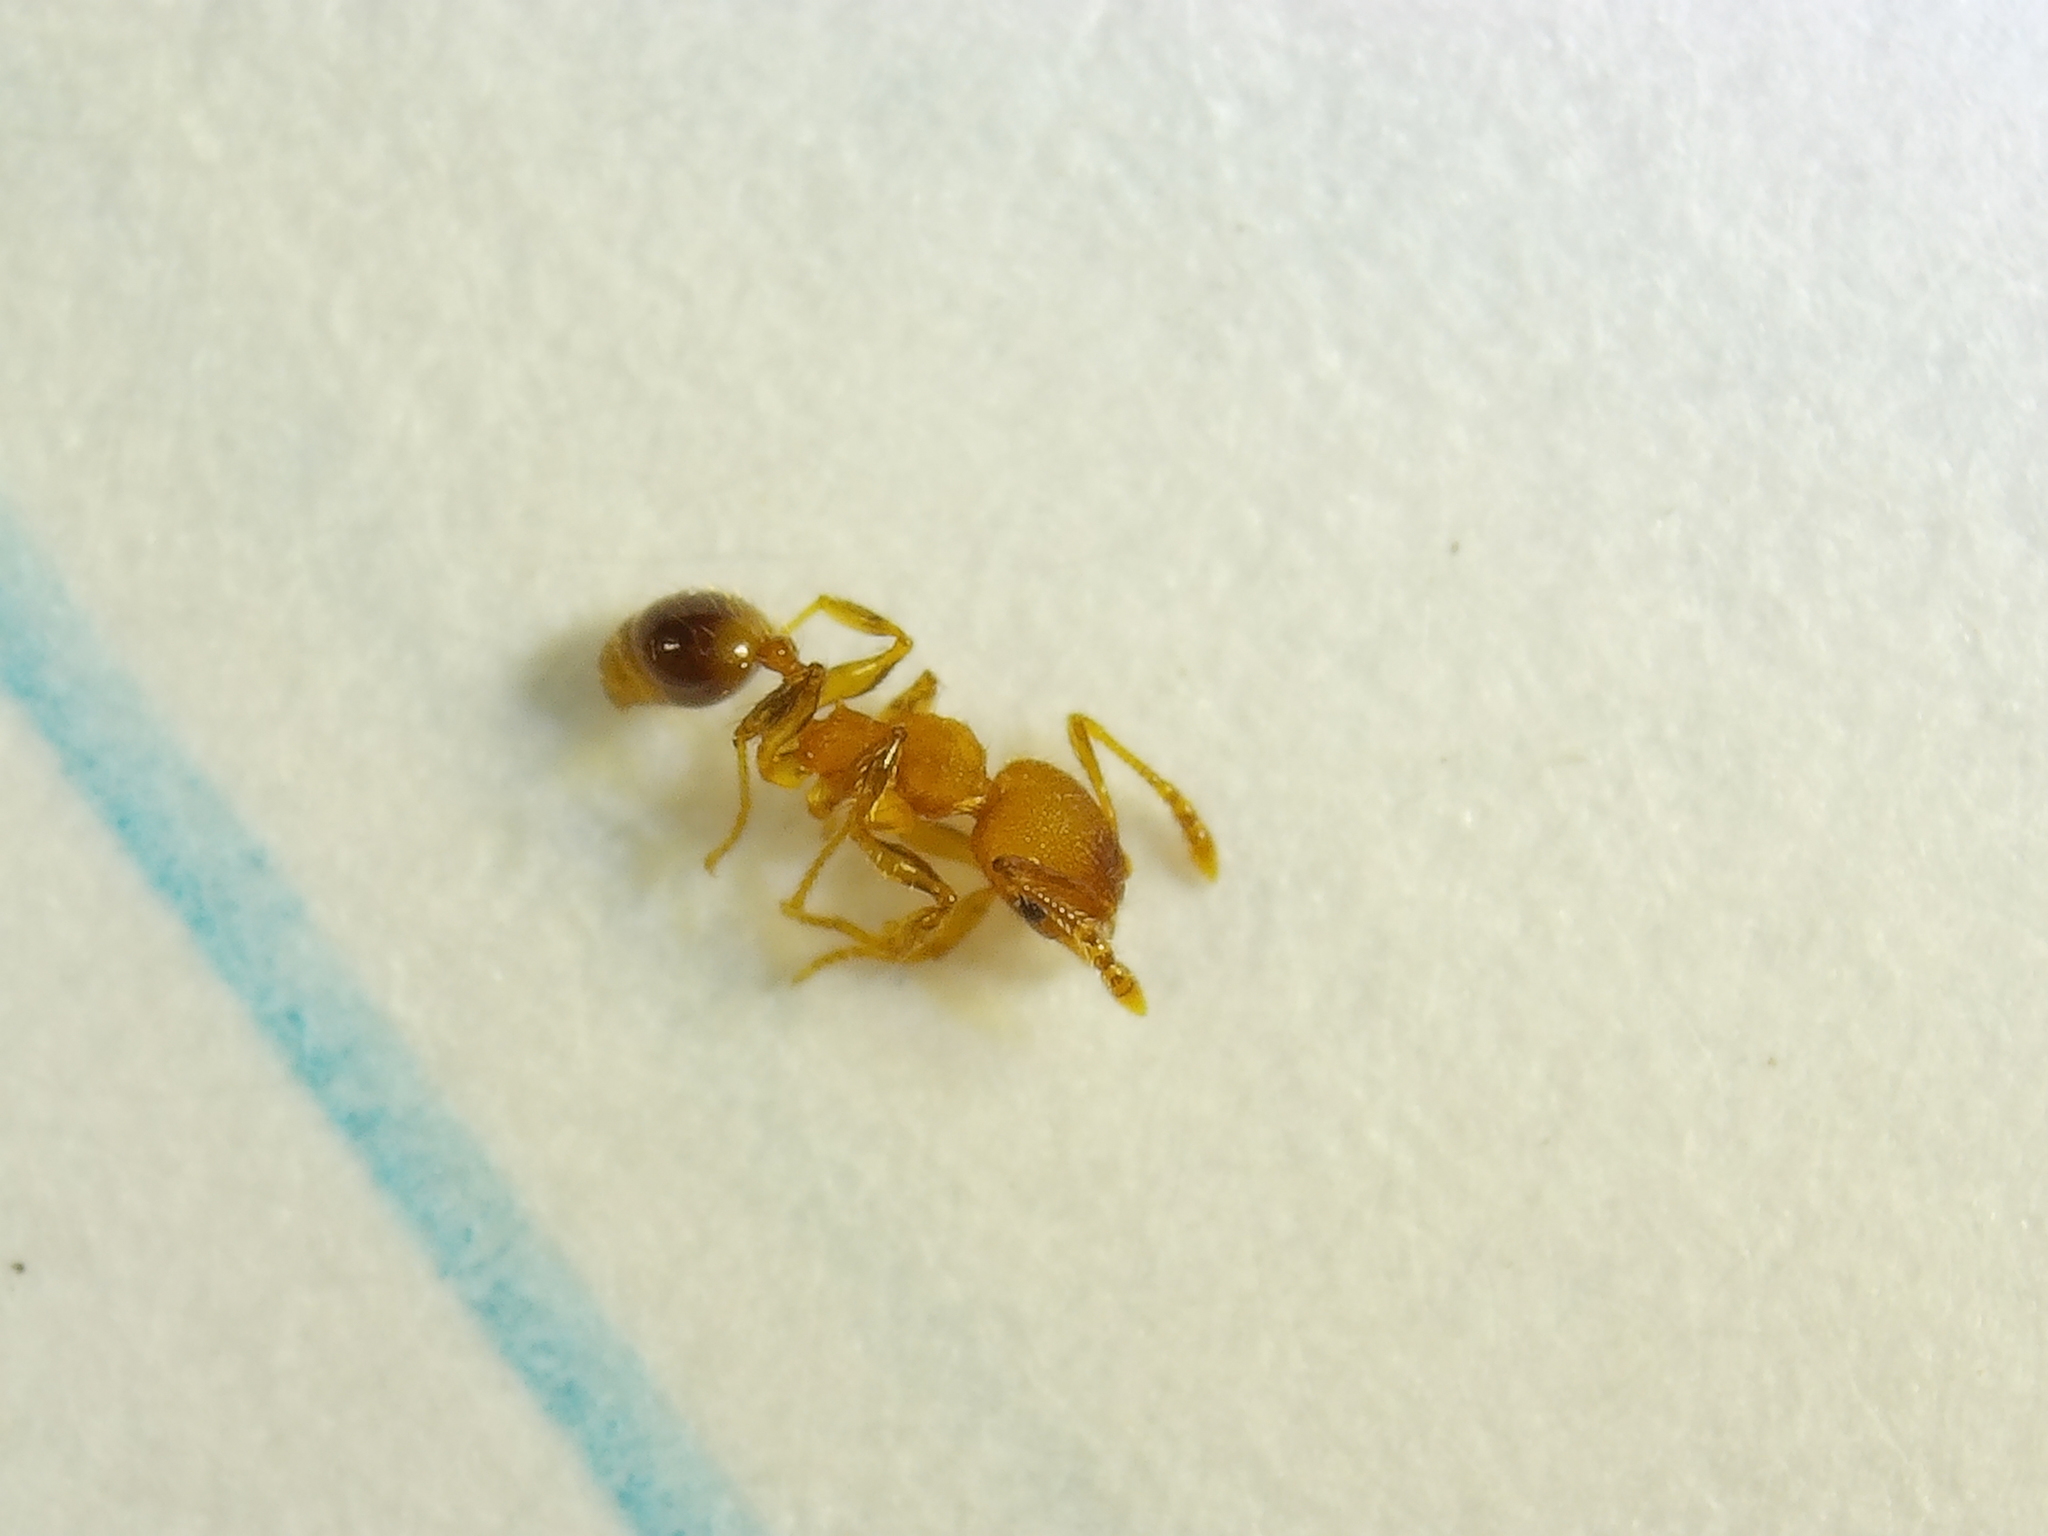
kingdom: Animalia
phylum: Arthropoda
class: Insecta
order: Hymenoptera
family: Formicidae
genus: Pheidole
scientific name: Pheidole navigans
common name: Navigating big-headed ant
